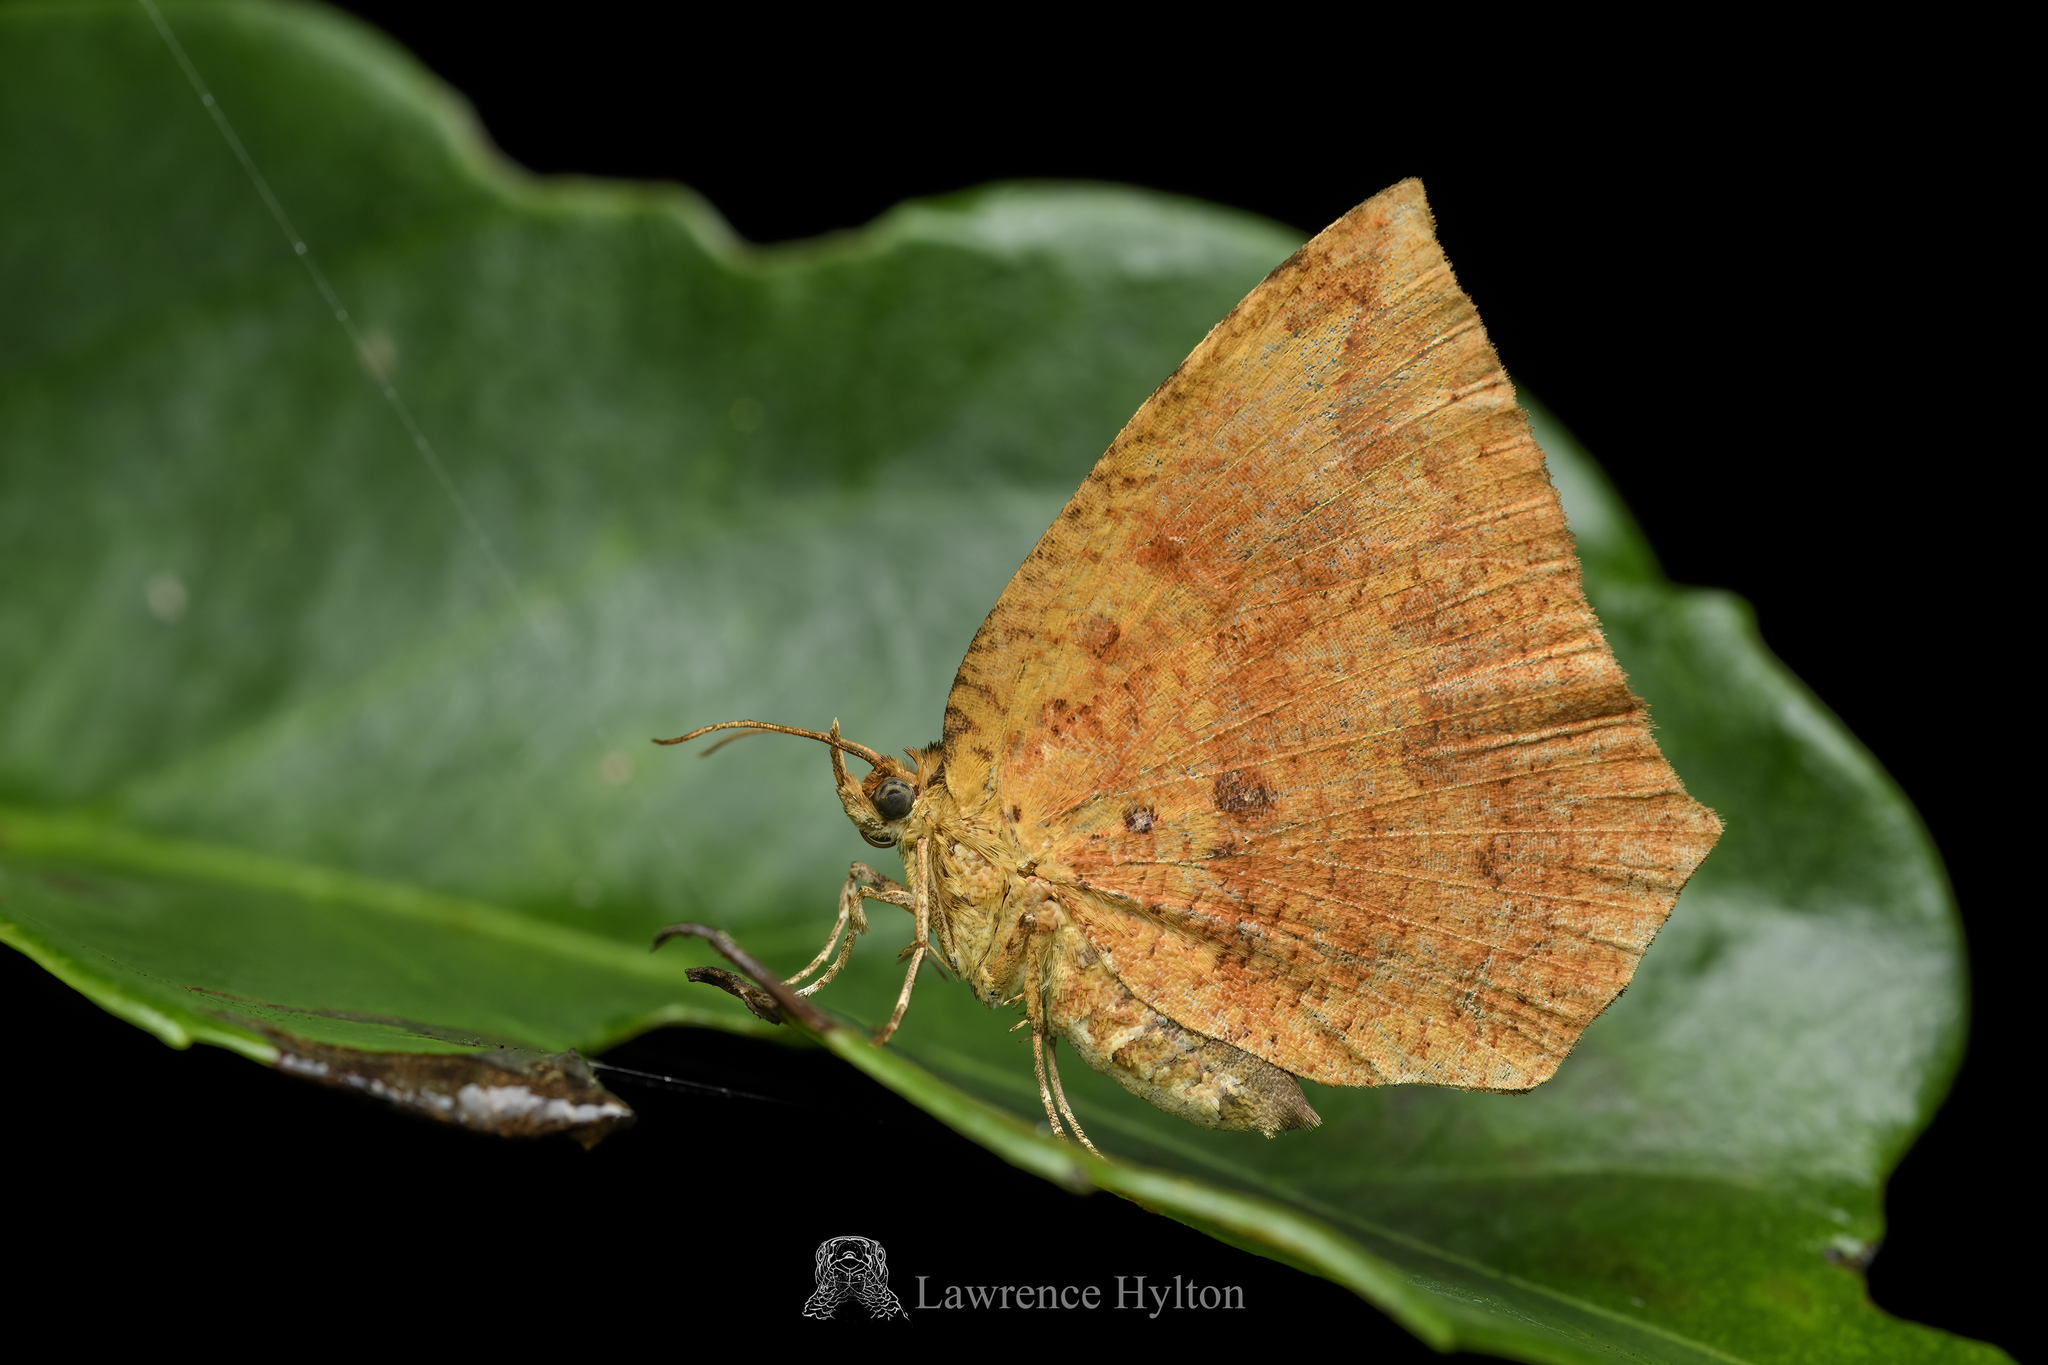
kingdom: Animalia
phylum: Arthropoda
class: Insecta
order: Lepidoptera
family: Callidulidae
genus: Tetragonus
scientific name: Tetragonus catamitus
